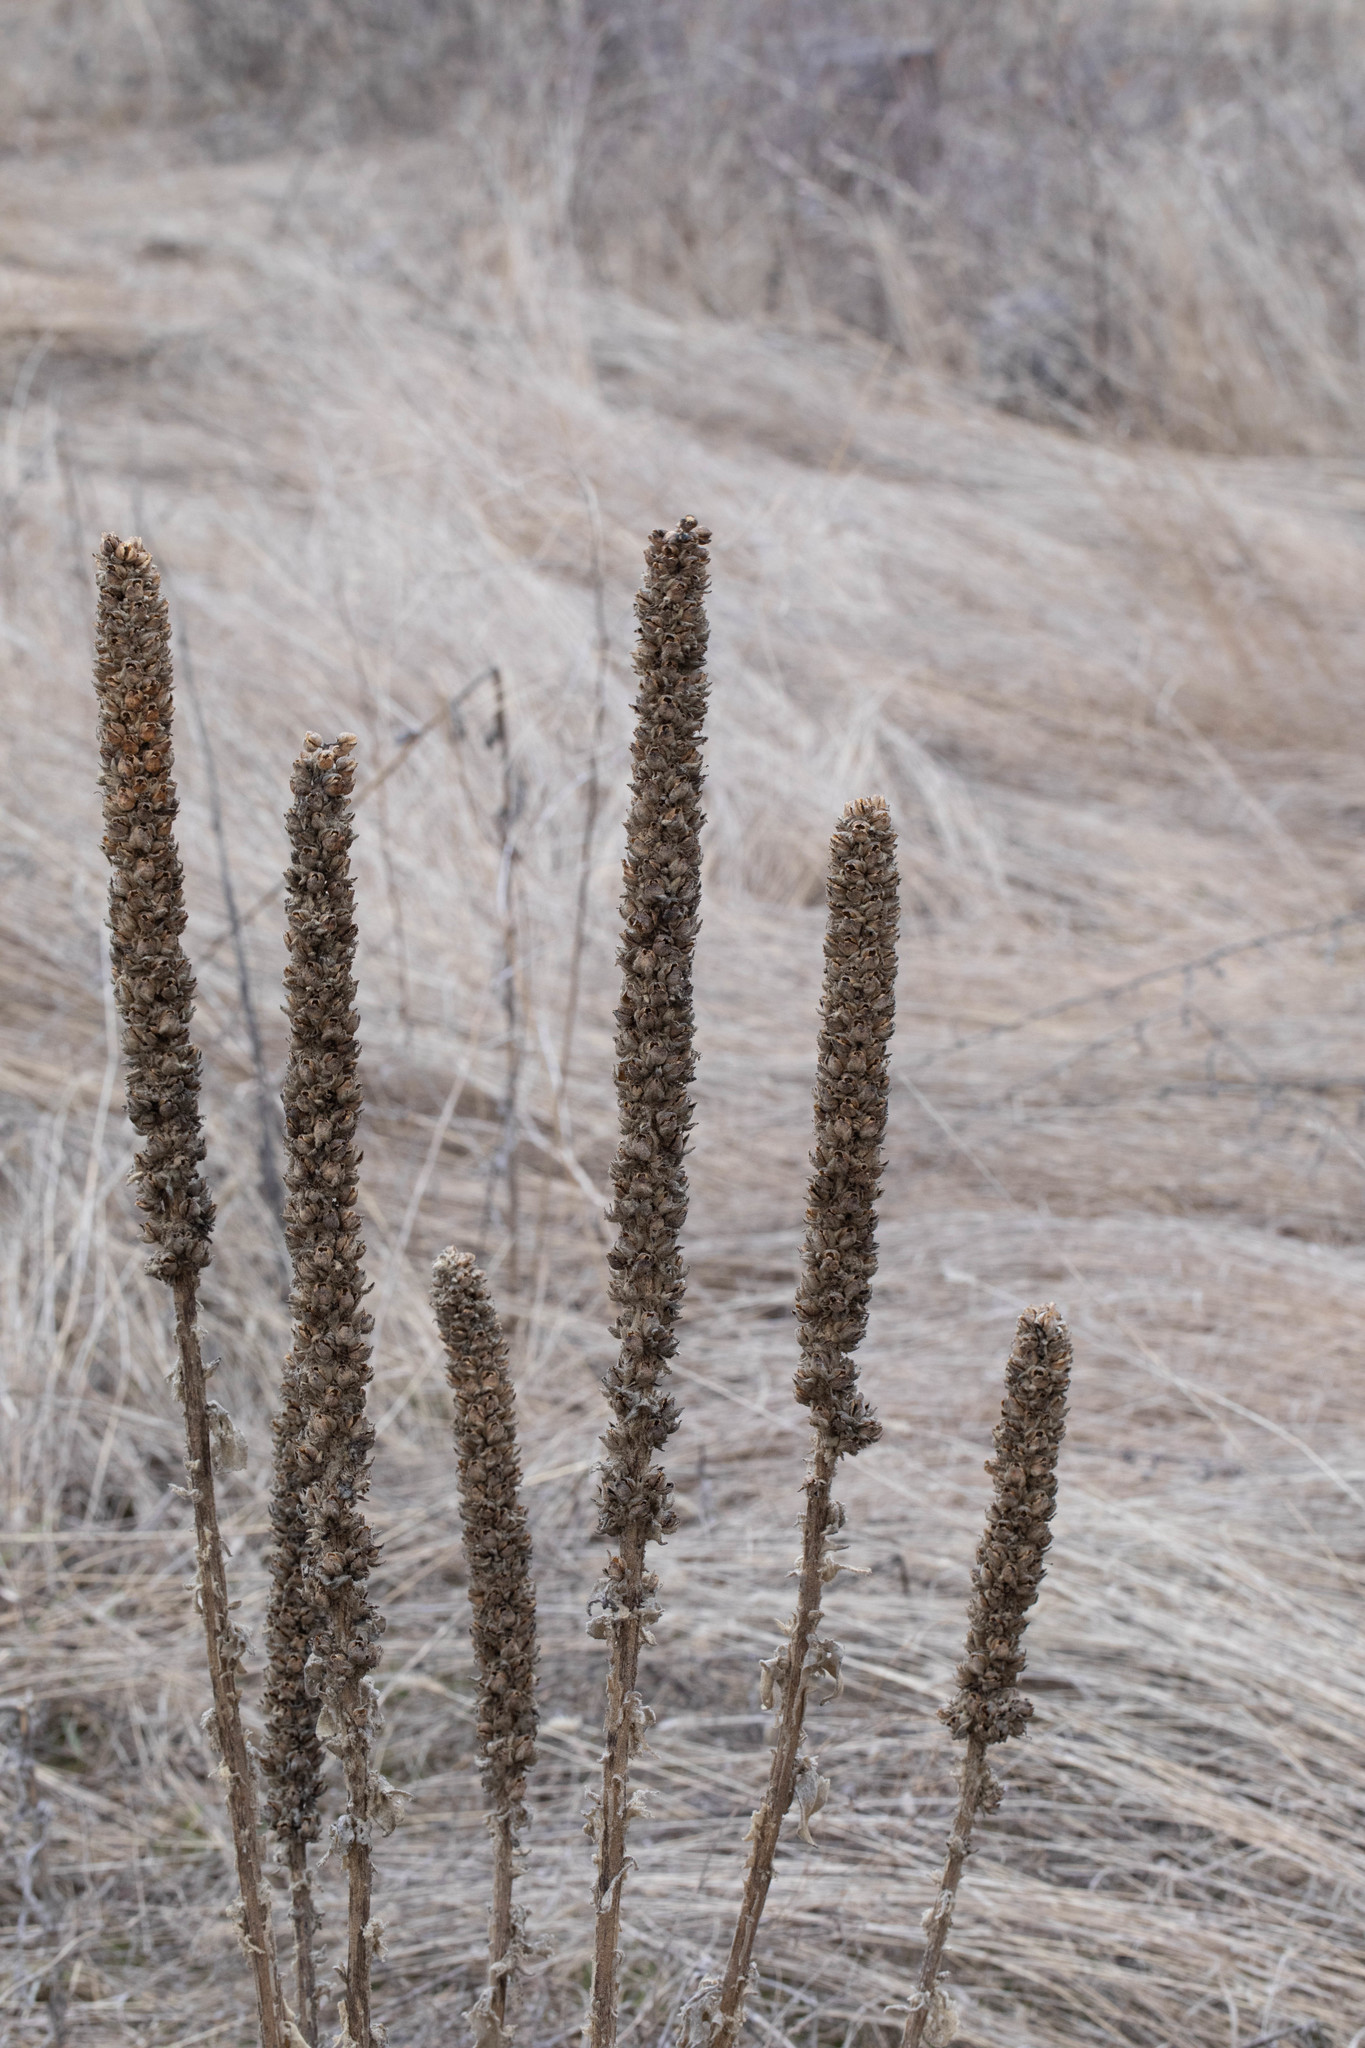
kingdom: Plantae
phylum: Tracheophyta
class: Magnoliopsida
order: Lamiales
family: Scrophulariaceae
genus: Verbascum
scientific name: Verbascum thapsus
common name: Common mullein
